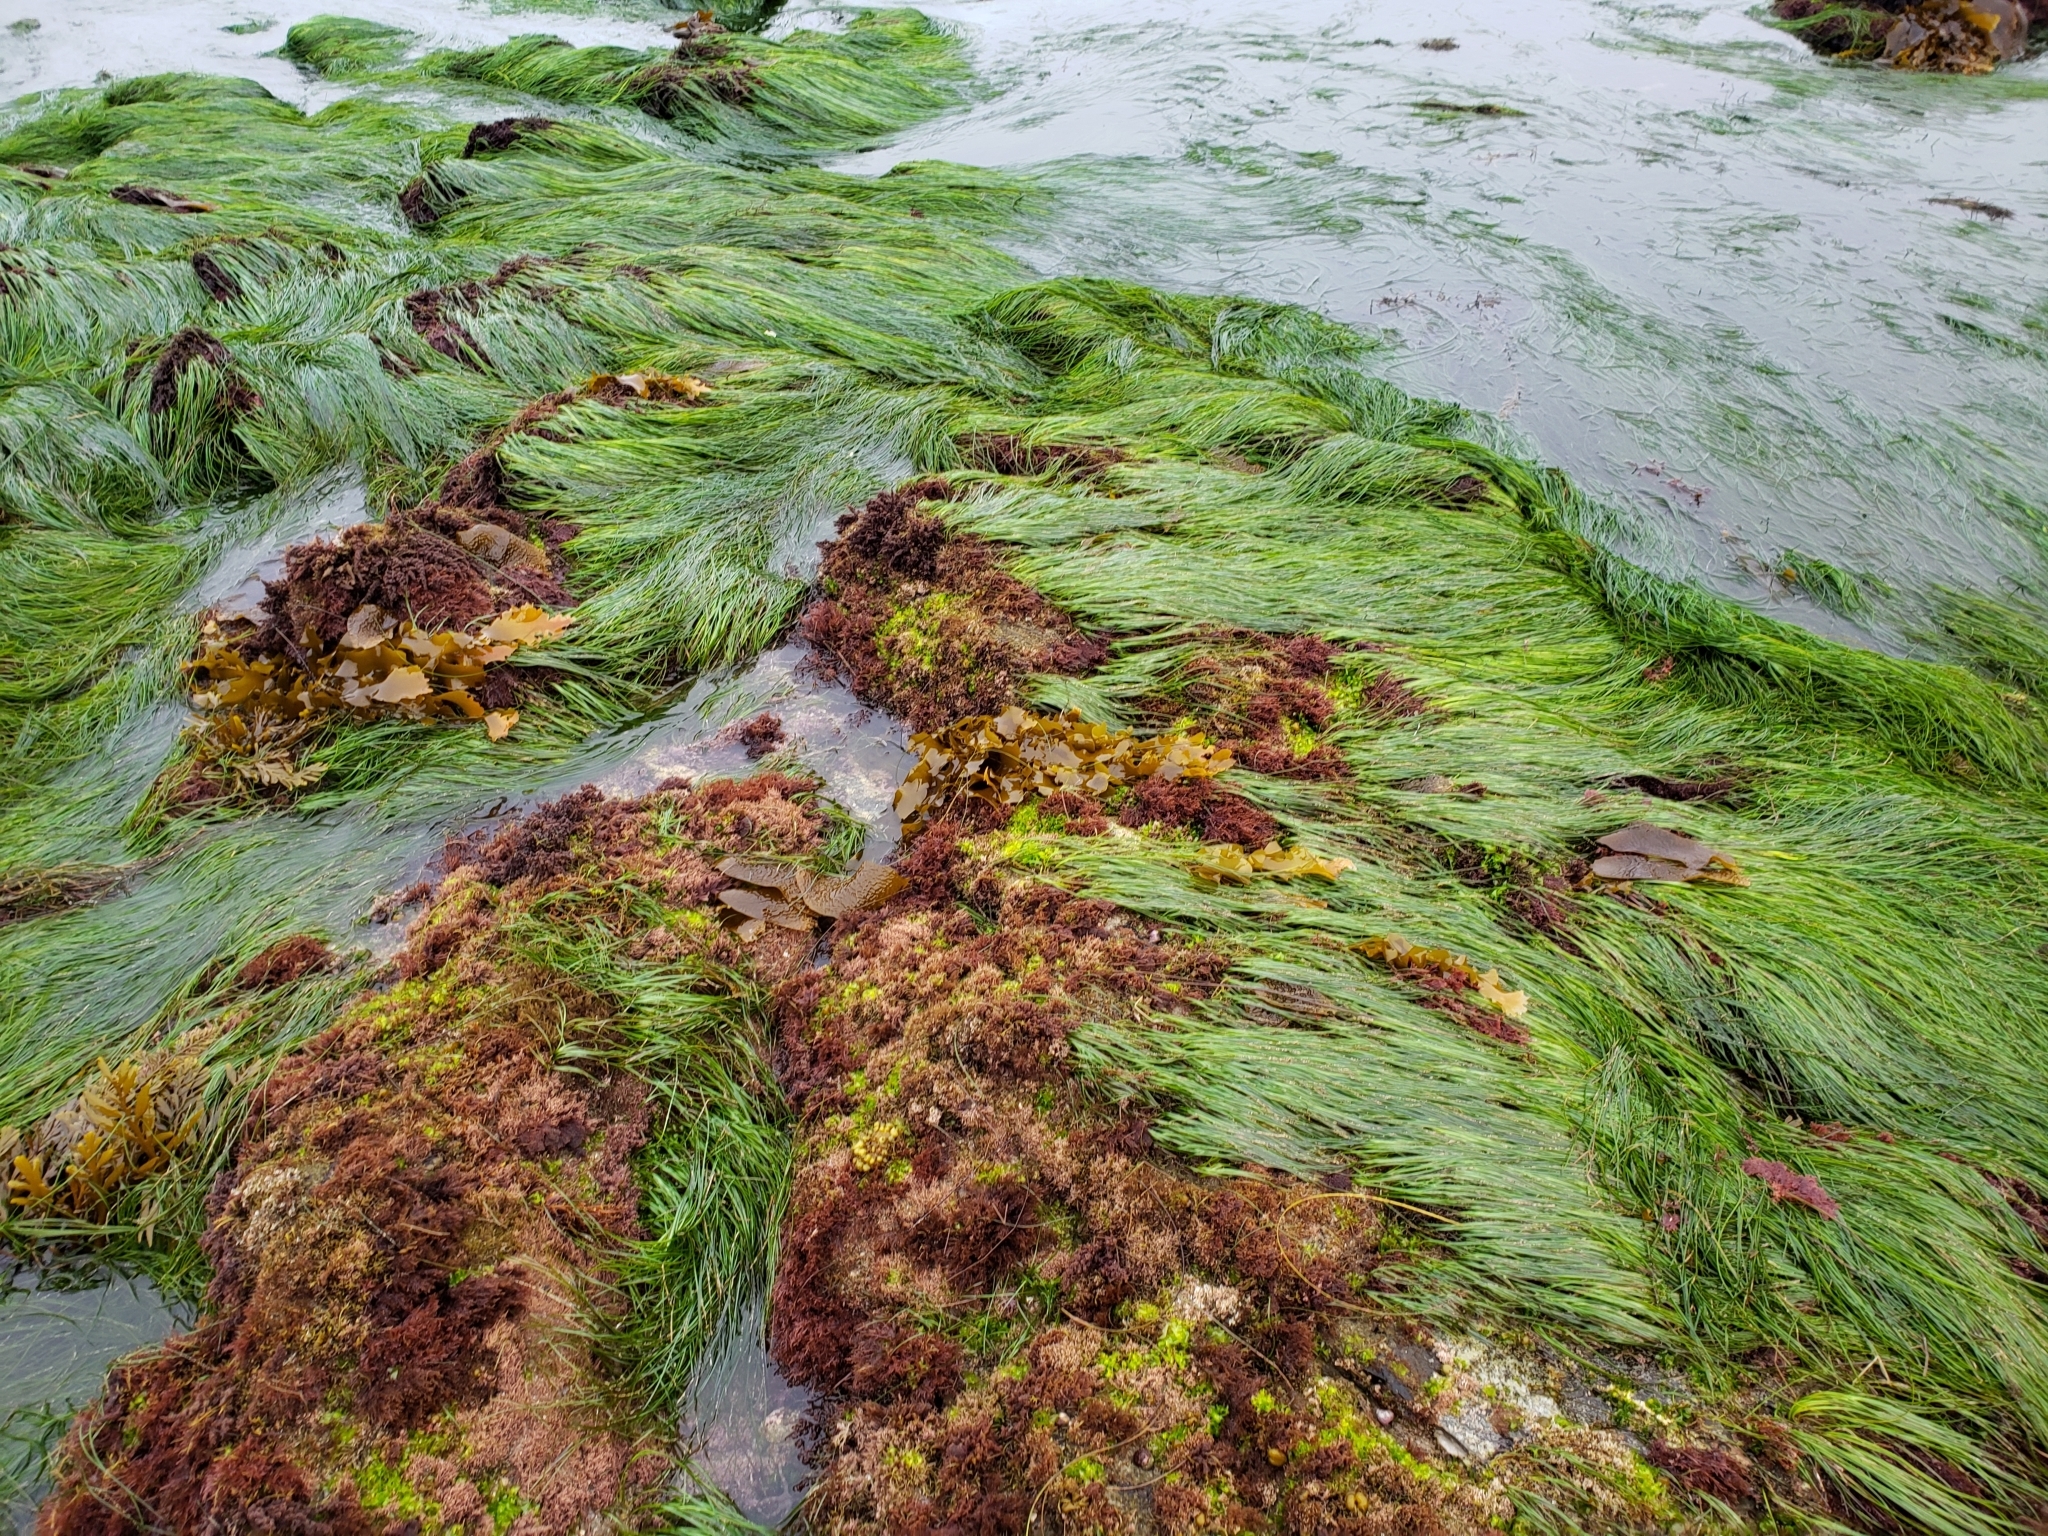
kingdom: Plantae
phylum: Tracheophyta
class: Liliopsida
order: Alismatales
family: Zosteraceae
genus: Phyllospadix
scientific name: Phyllospadix torreyi
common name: Surfgrass
